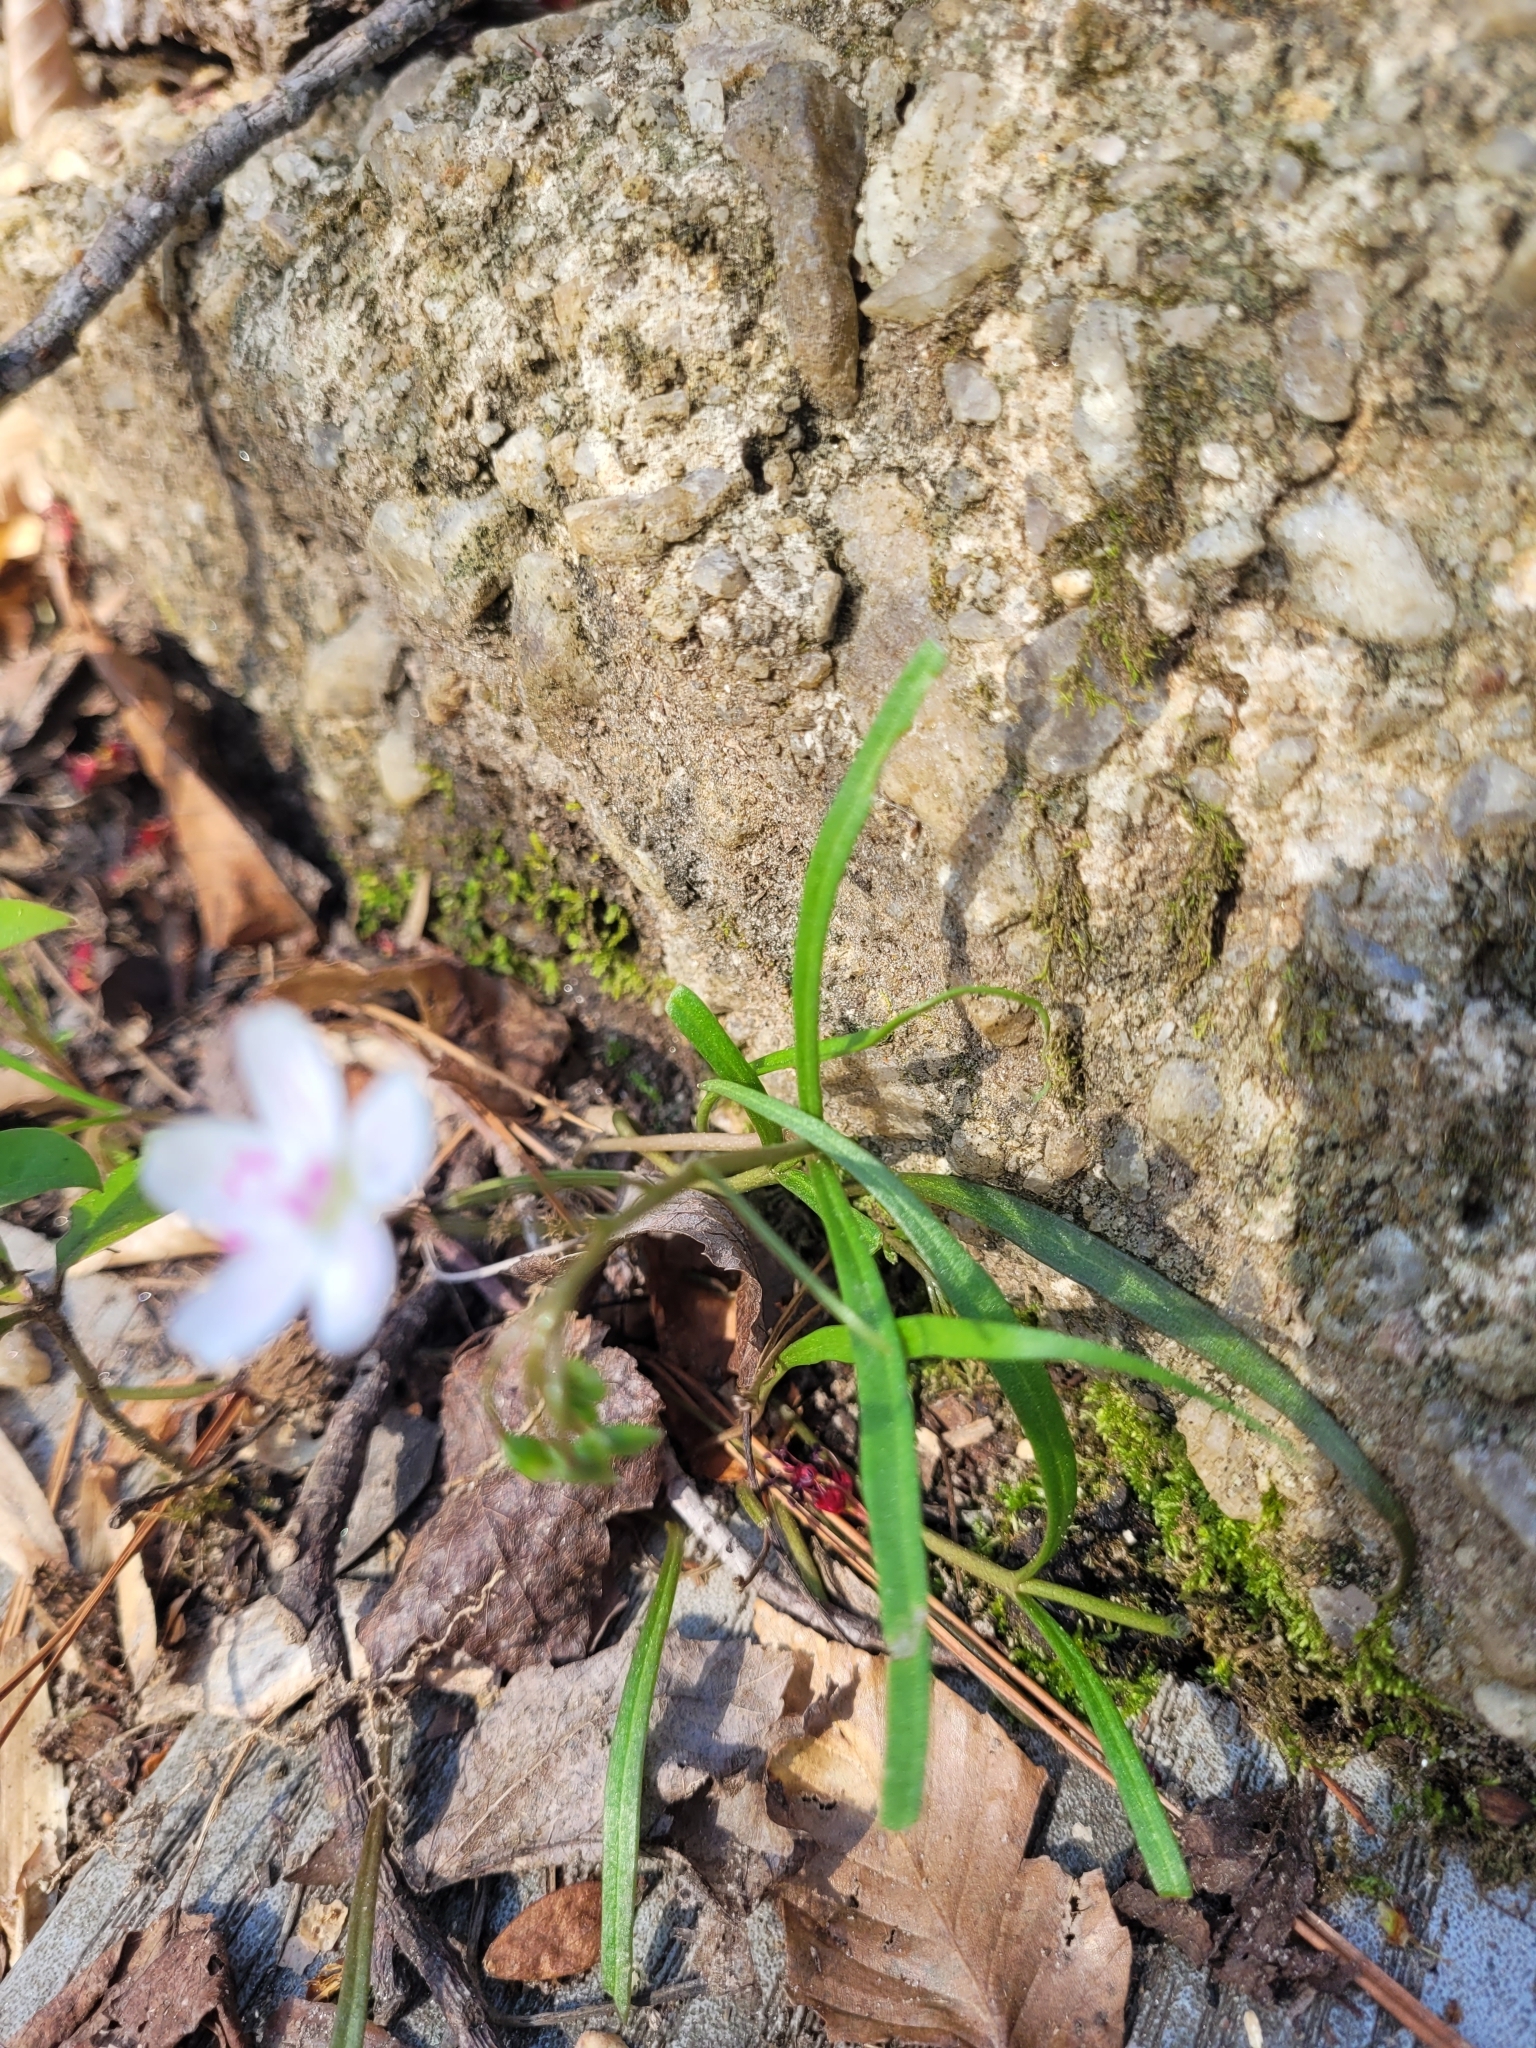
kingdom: Plantae
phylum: Tracheophyta
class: Magnoliopsida
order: Caryophyllales
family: Montiaceae
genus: Claytonia
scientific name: Claytonia virginica
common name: Virginia springbeauty
